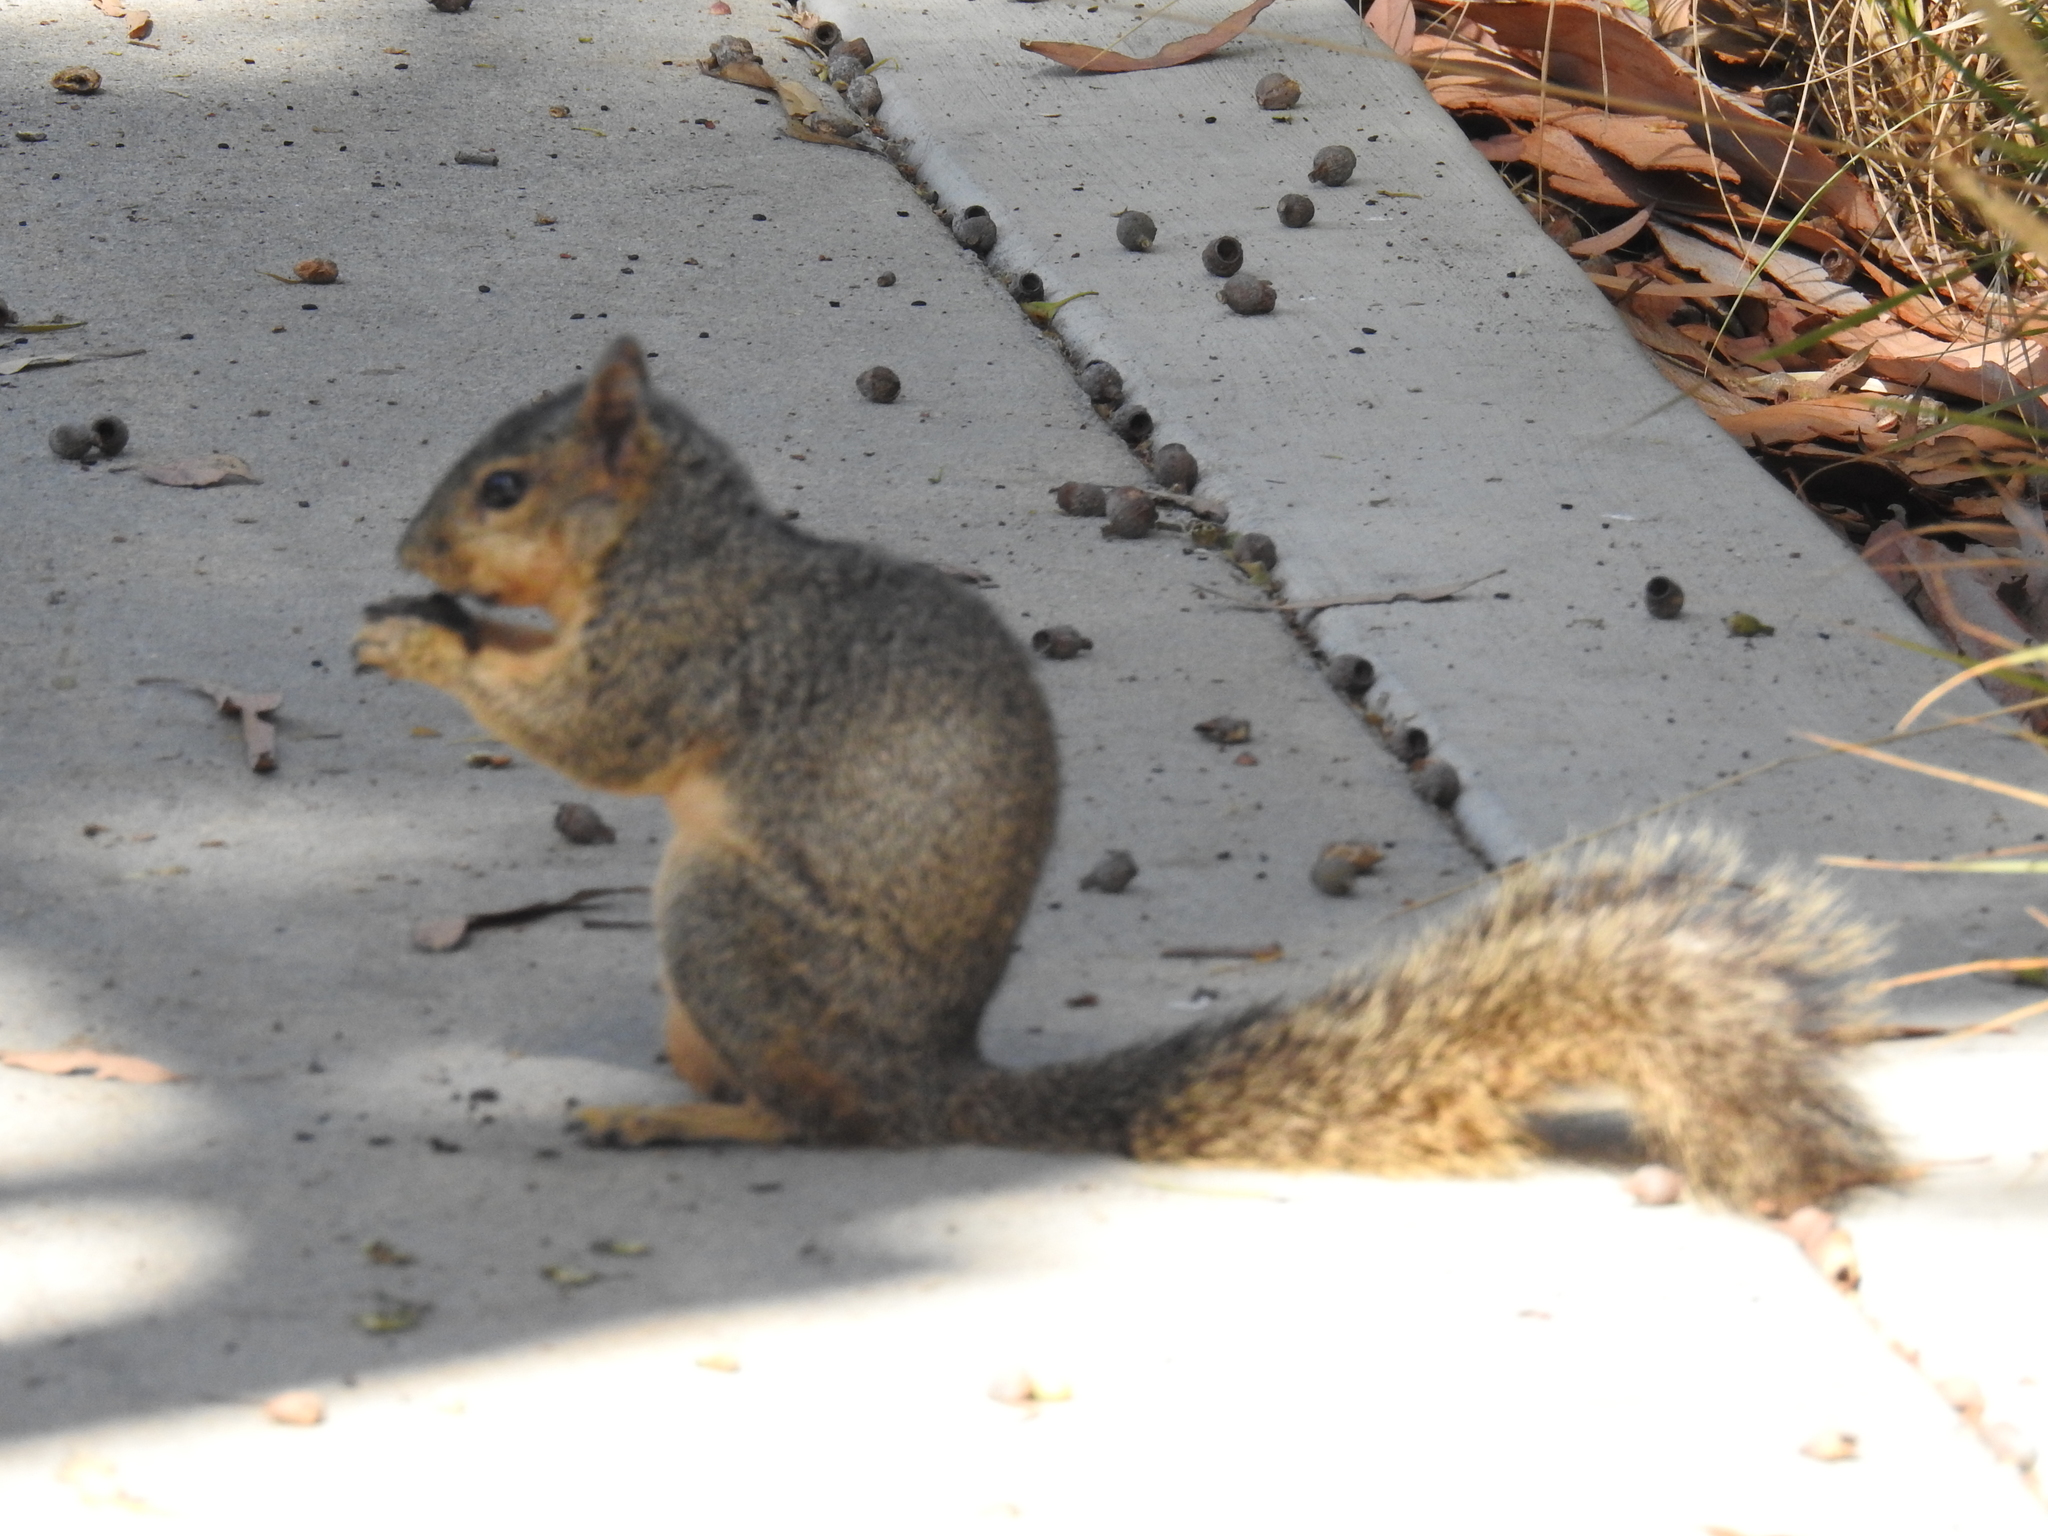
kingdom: Animalia
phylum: Chordata
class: Mammalia
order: Rodentia
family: Sciuridae
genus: Sciurus
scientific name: Sciurus niger
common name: Fox squirrel
